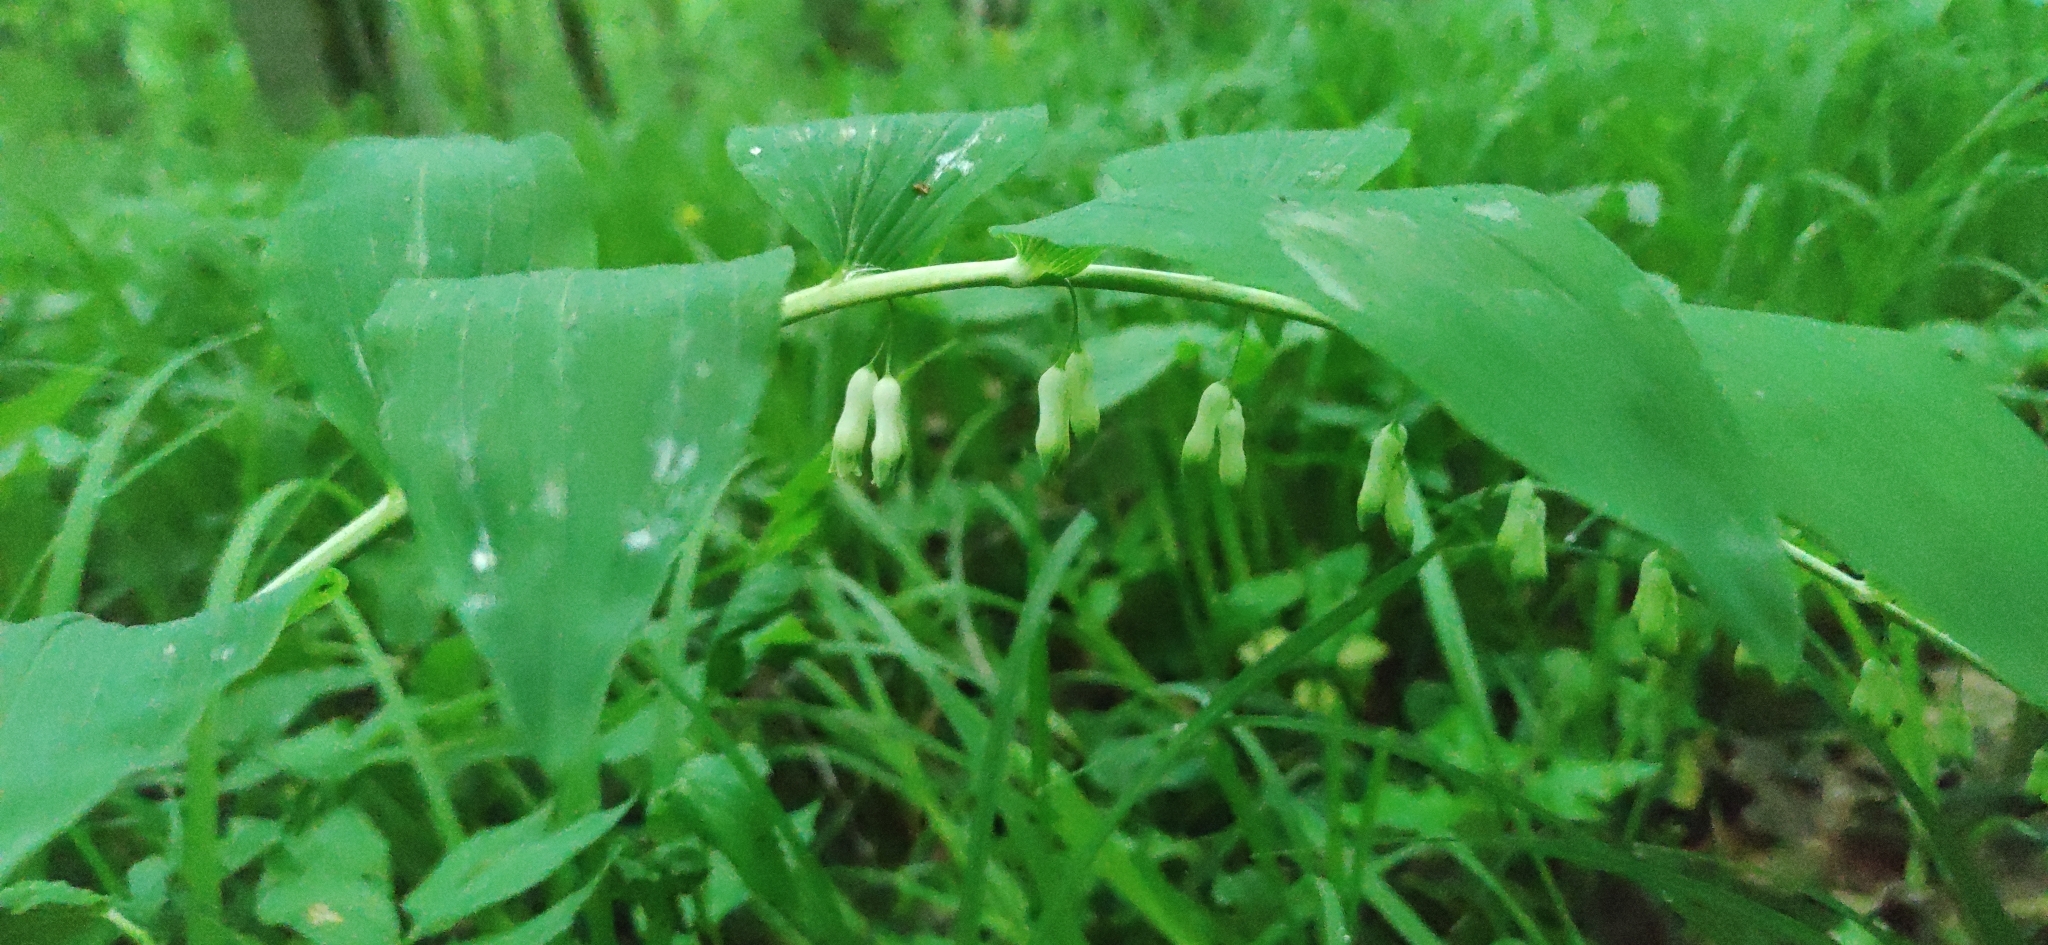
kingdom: Plantae
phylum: Tracheophyta
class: Liliopsida
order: Asparagales
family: Asparagaceae
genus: Polygonatum
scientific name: Polygonatum multiflorum
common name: Solomon's-seal
